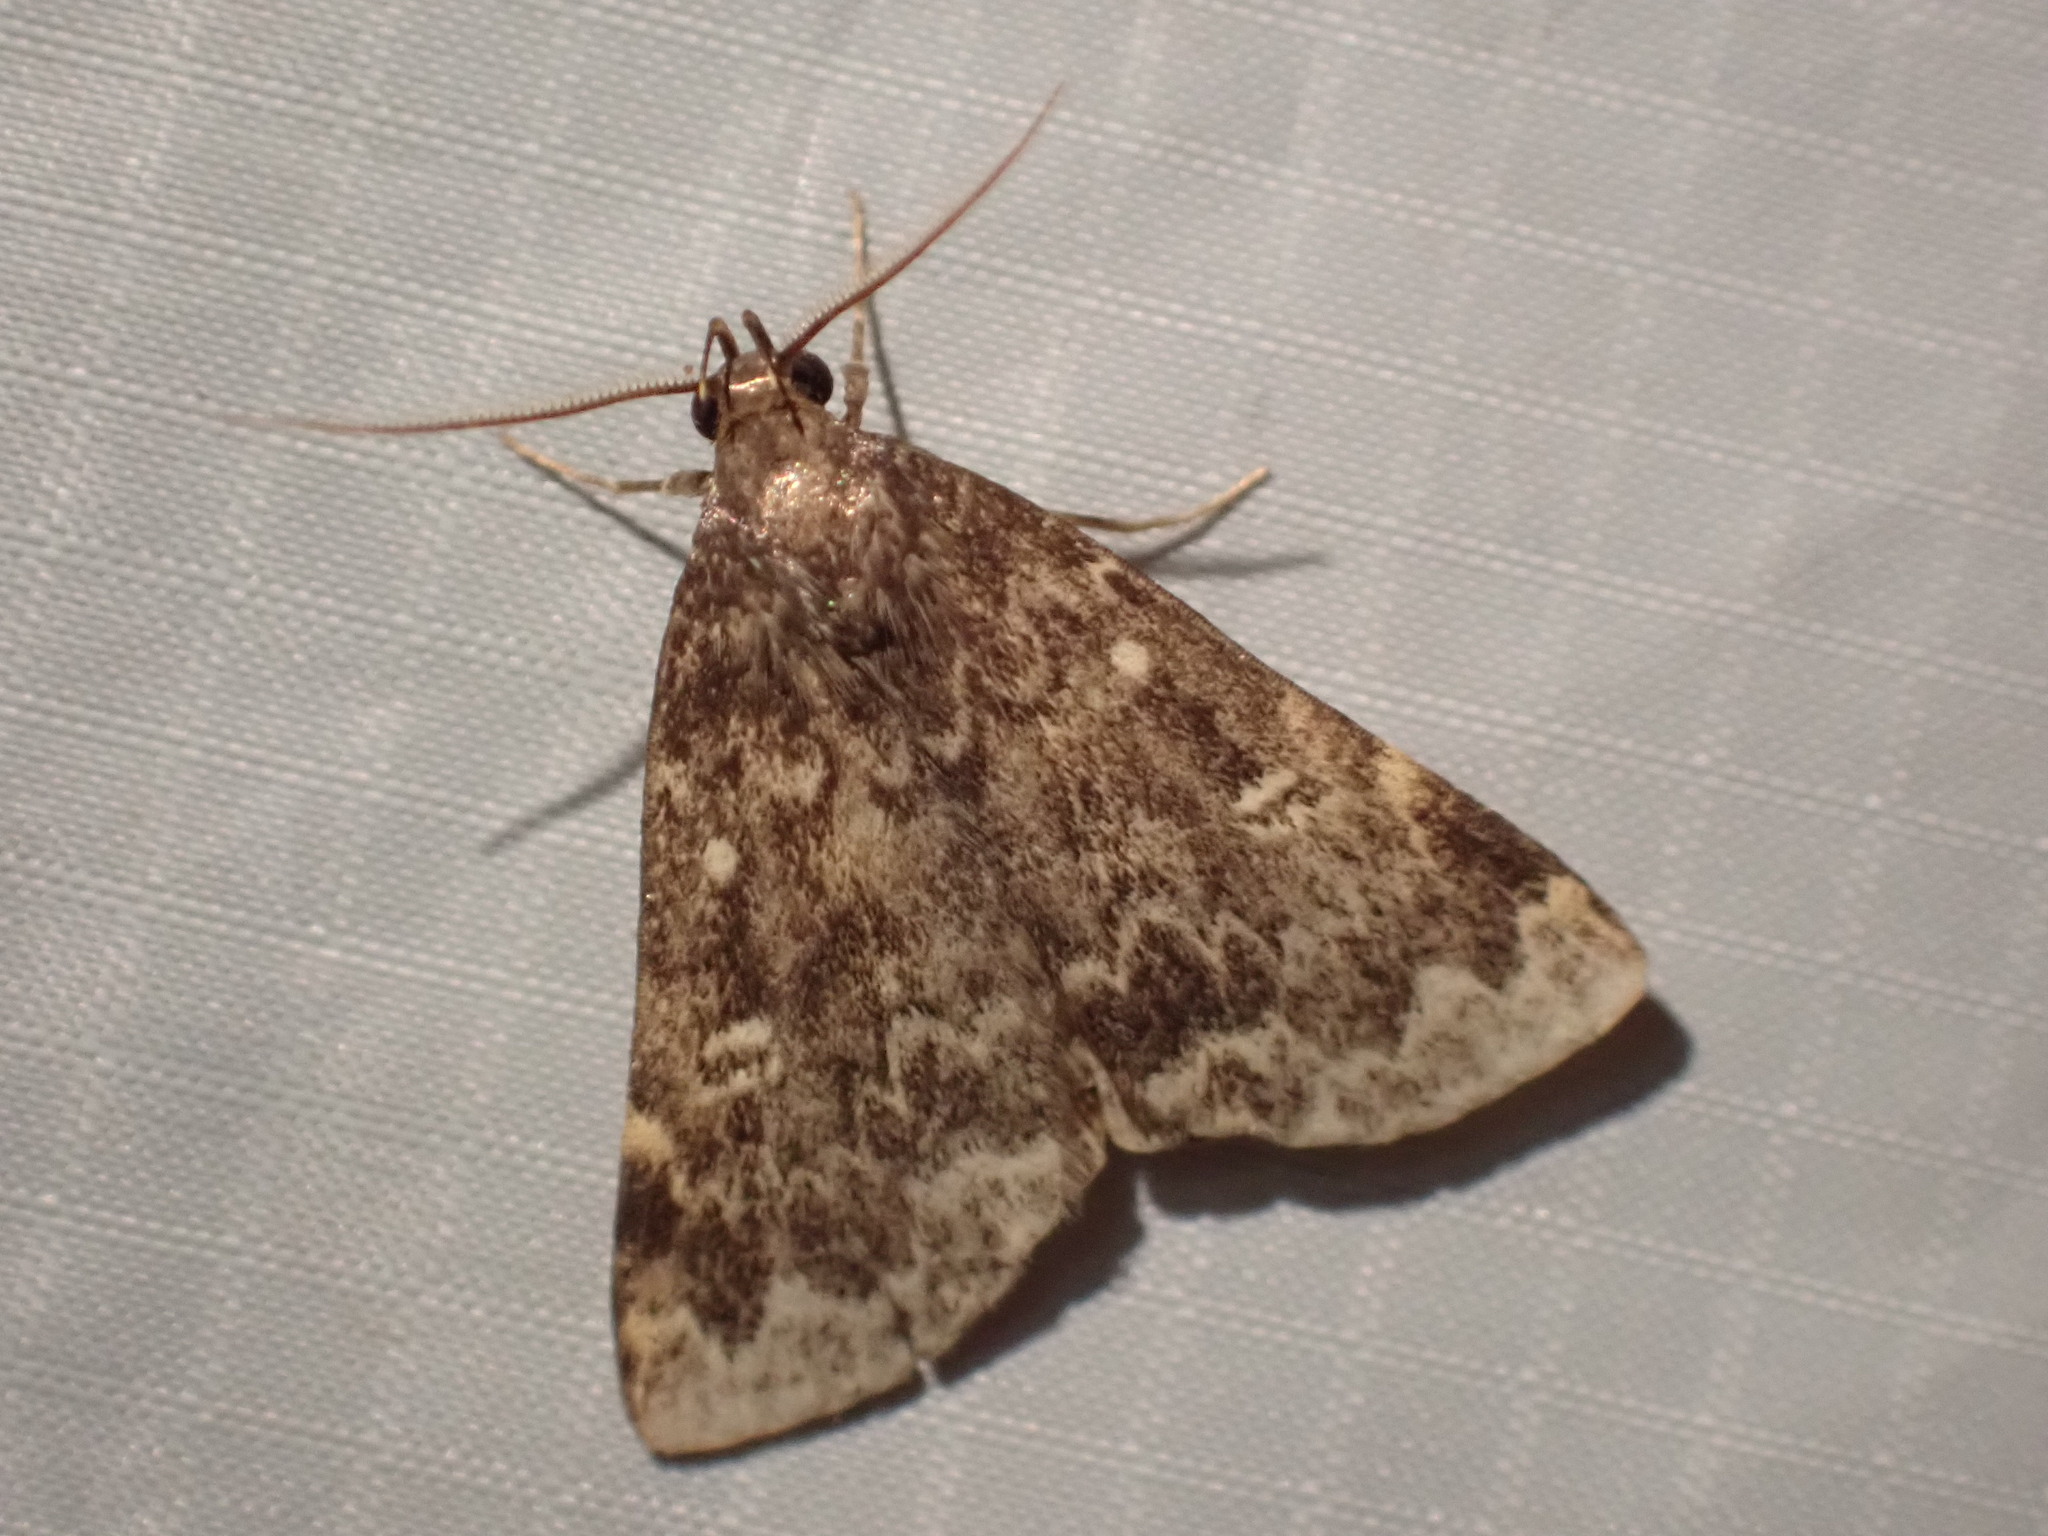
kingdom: Animalia
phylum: Arthropoda
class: Insecta
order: Lepidoptera
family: Erebidae
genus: Idia
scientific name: Idia lubricalis
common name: Twin-striped tabby
